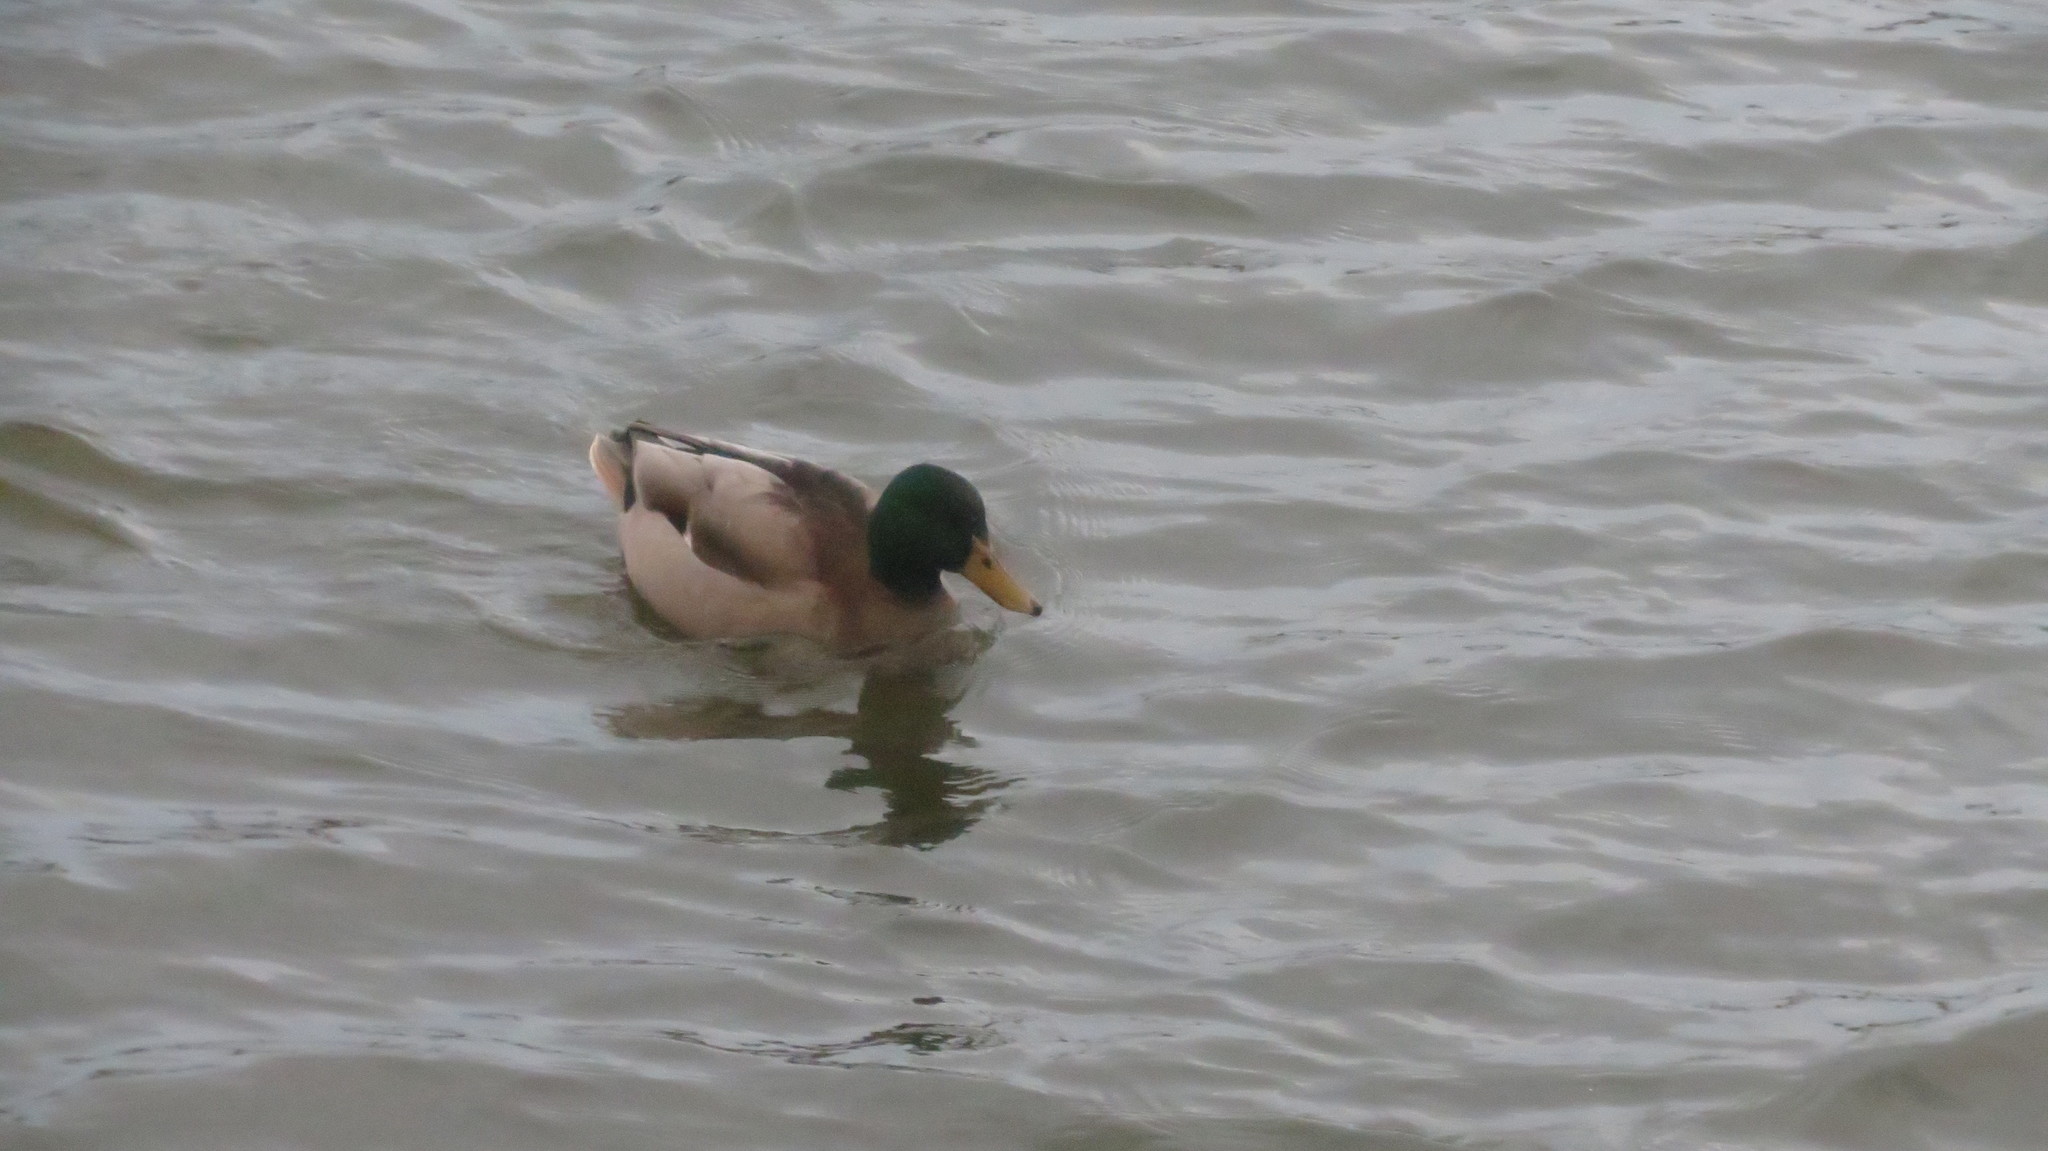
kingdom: Animalia
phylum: Chordata
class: Aves
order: Anseriformes
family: Anatidae
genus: Anas
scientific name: Anas platyrhynchos
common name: Mallard
